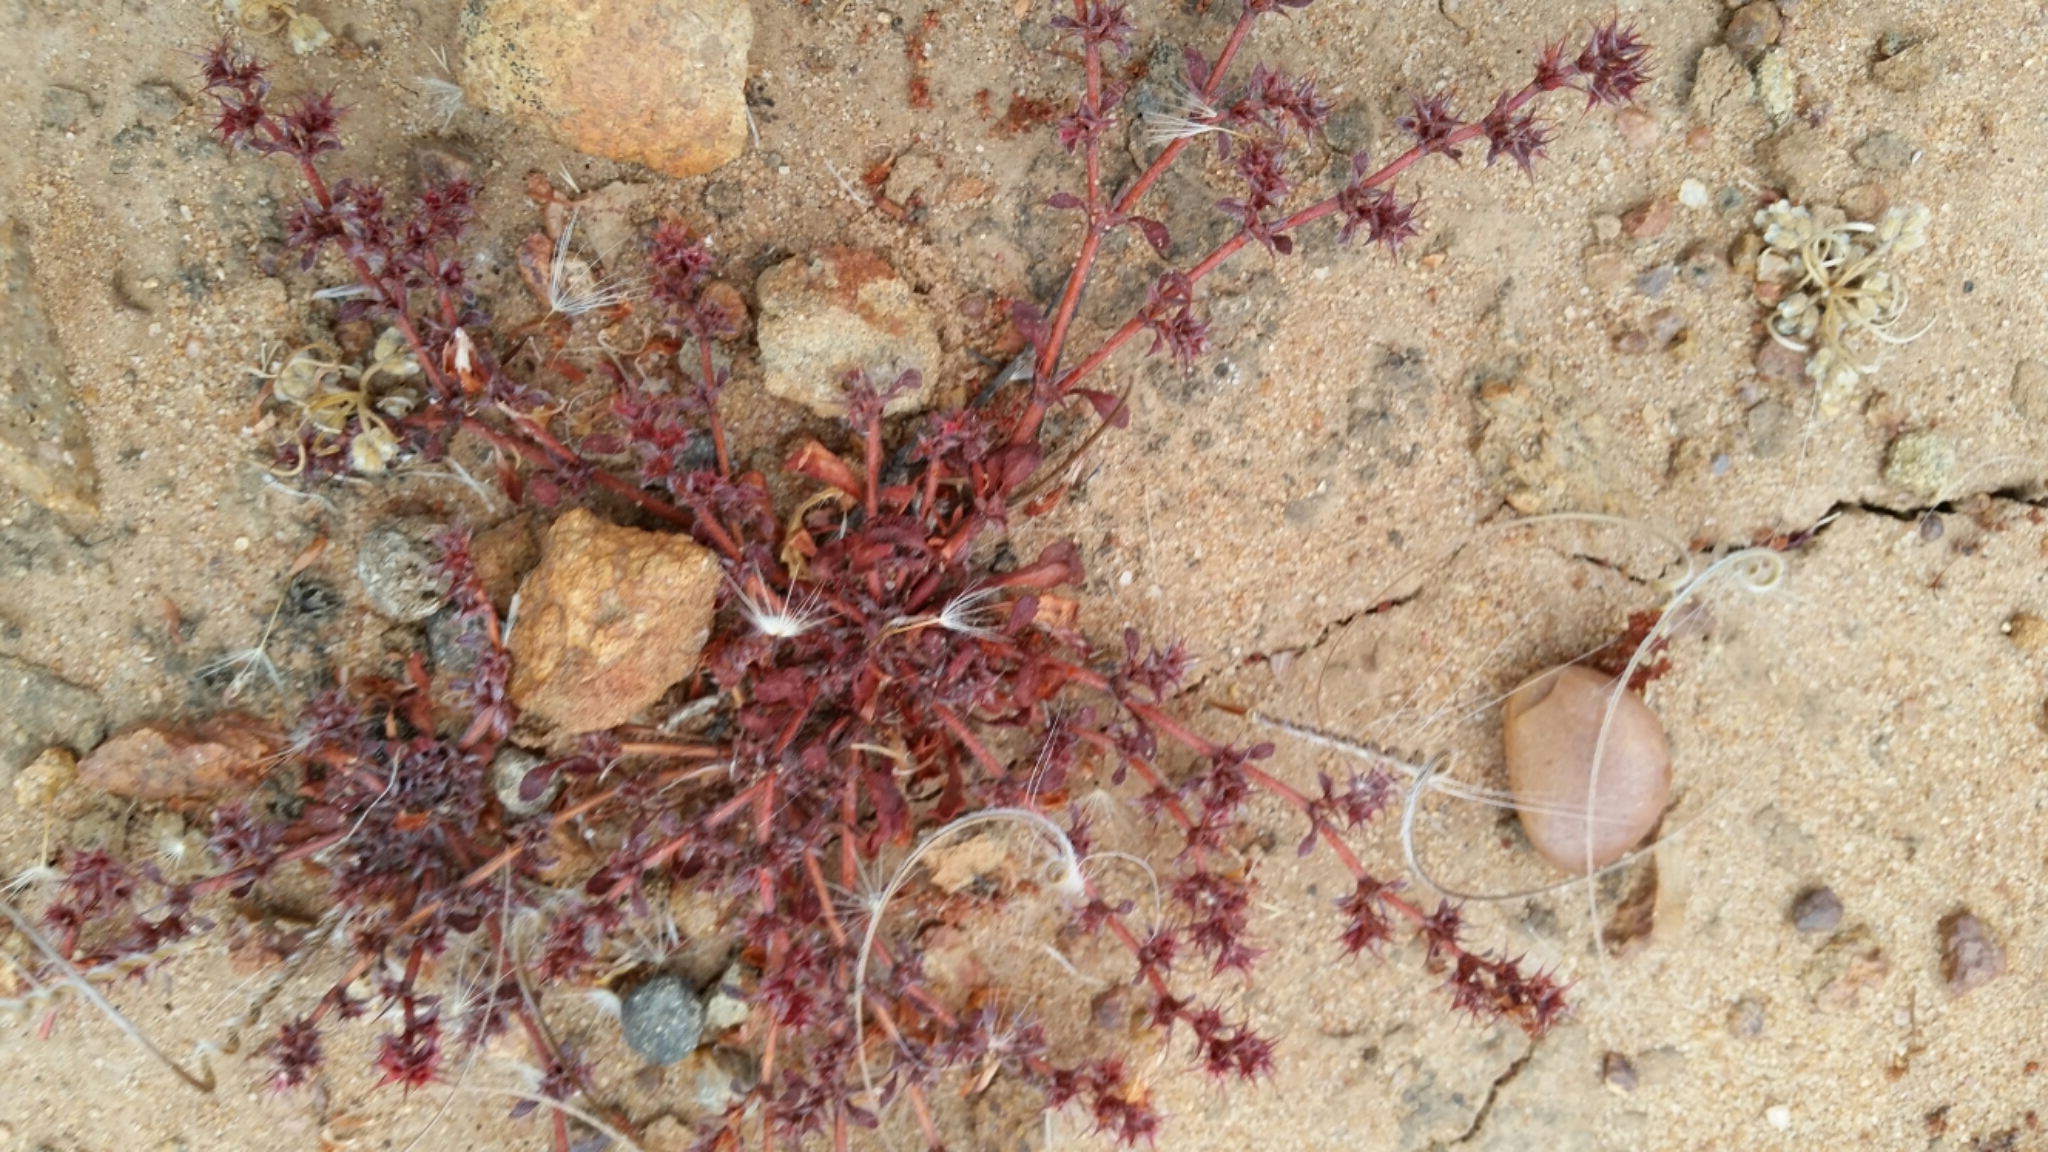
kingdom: Plantae
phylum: Tracheophyta
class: Magnoliopsida
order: Caryophyllales
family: Polygonaceae
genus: Chorizanthe
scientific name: Chorizanthe polygonoides
